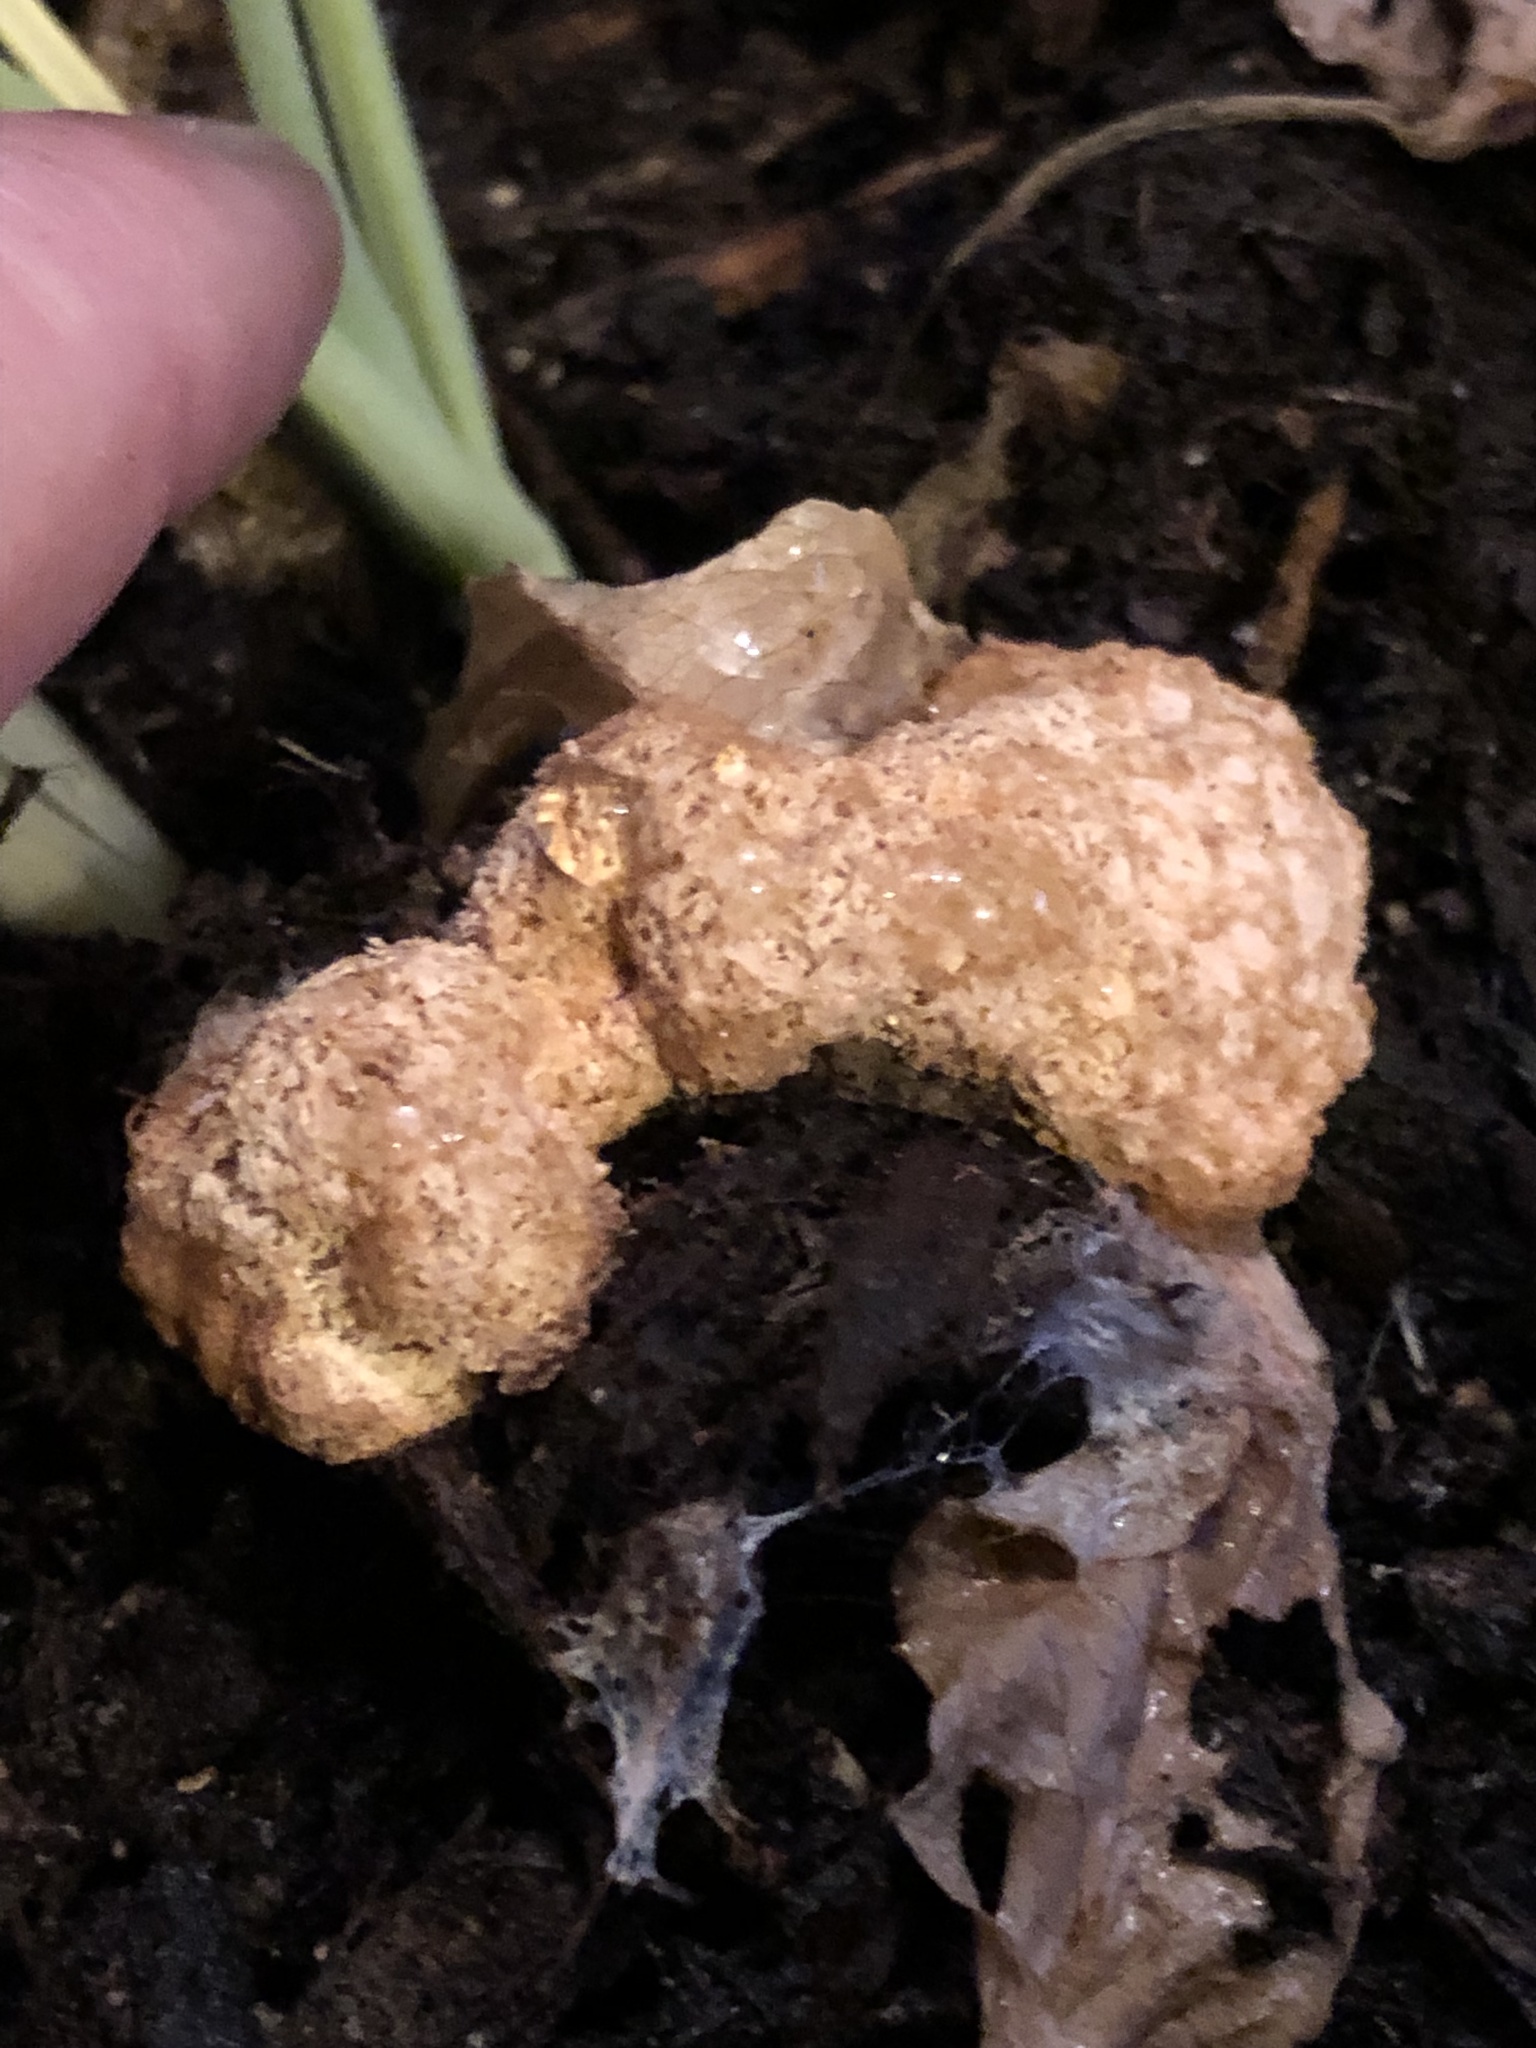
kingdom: Protozoa
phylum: Mycetozoa
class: Myxomycetes
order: Physarales
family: Physaraceae
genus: Fuligo
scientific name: Fuligo septica
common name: Dog vomit slime mold
